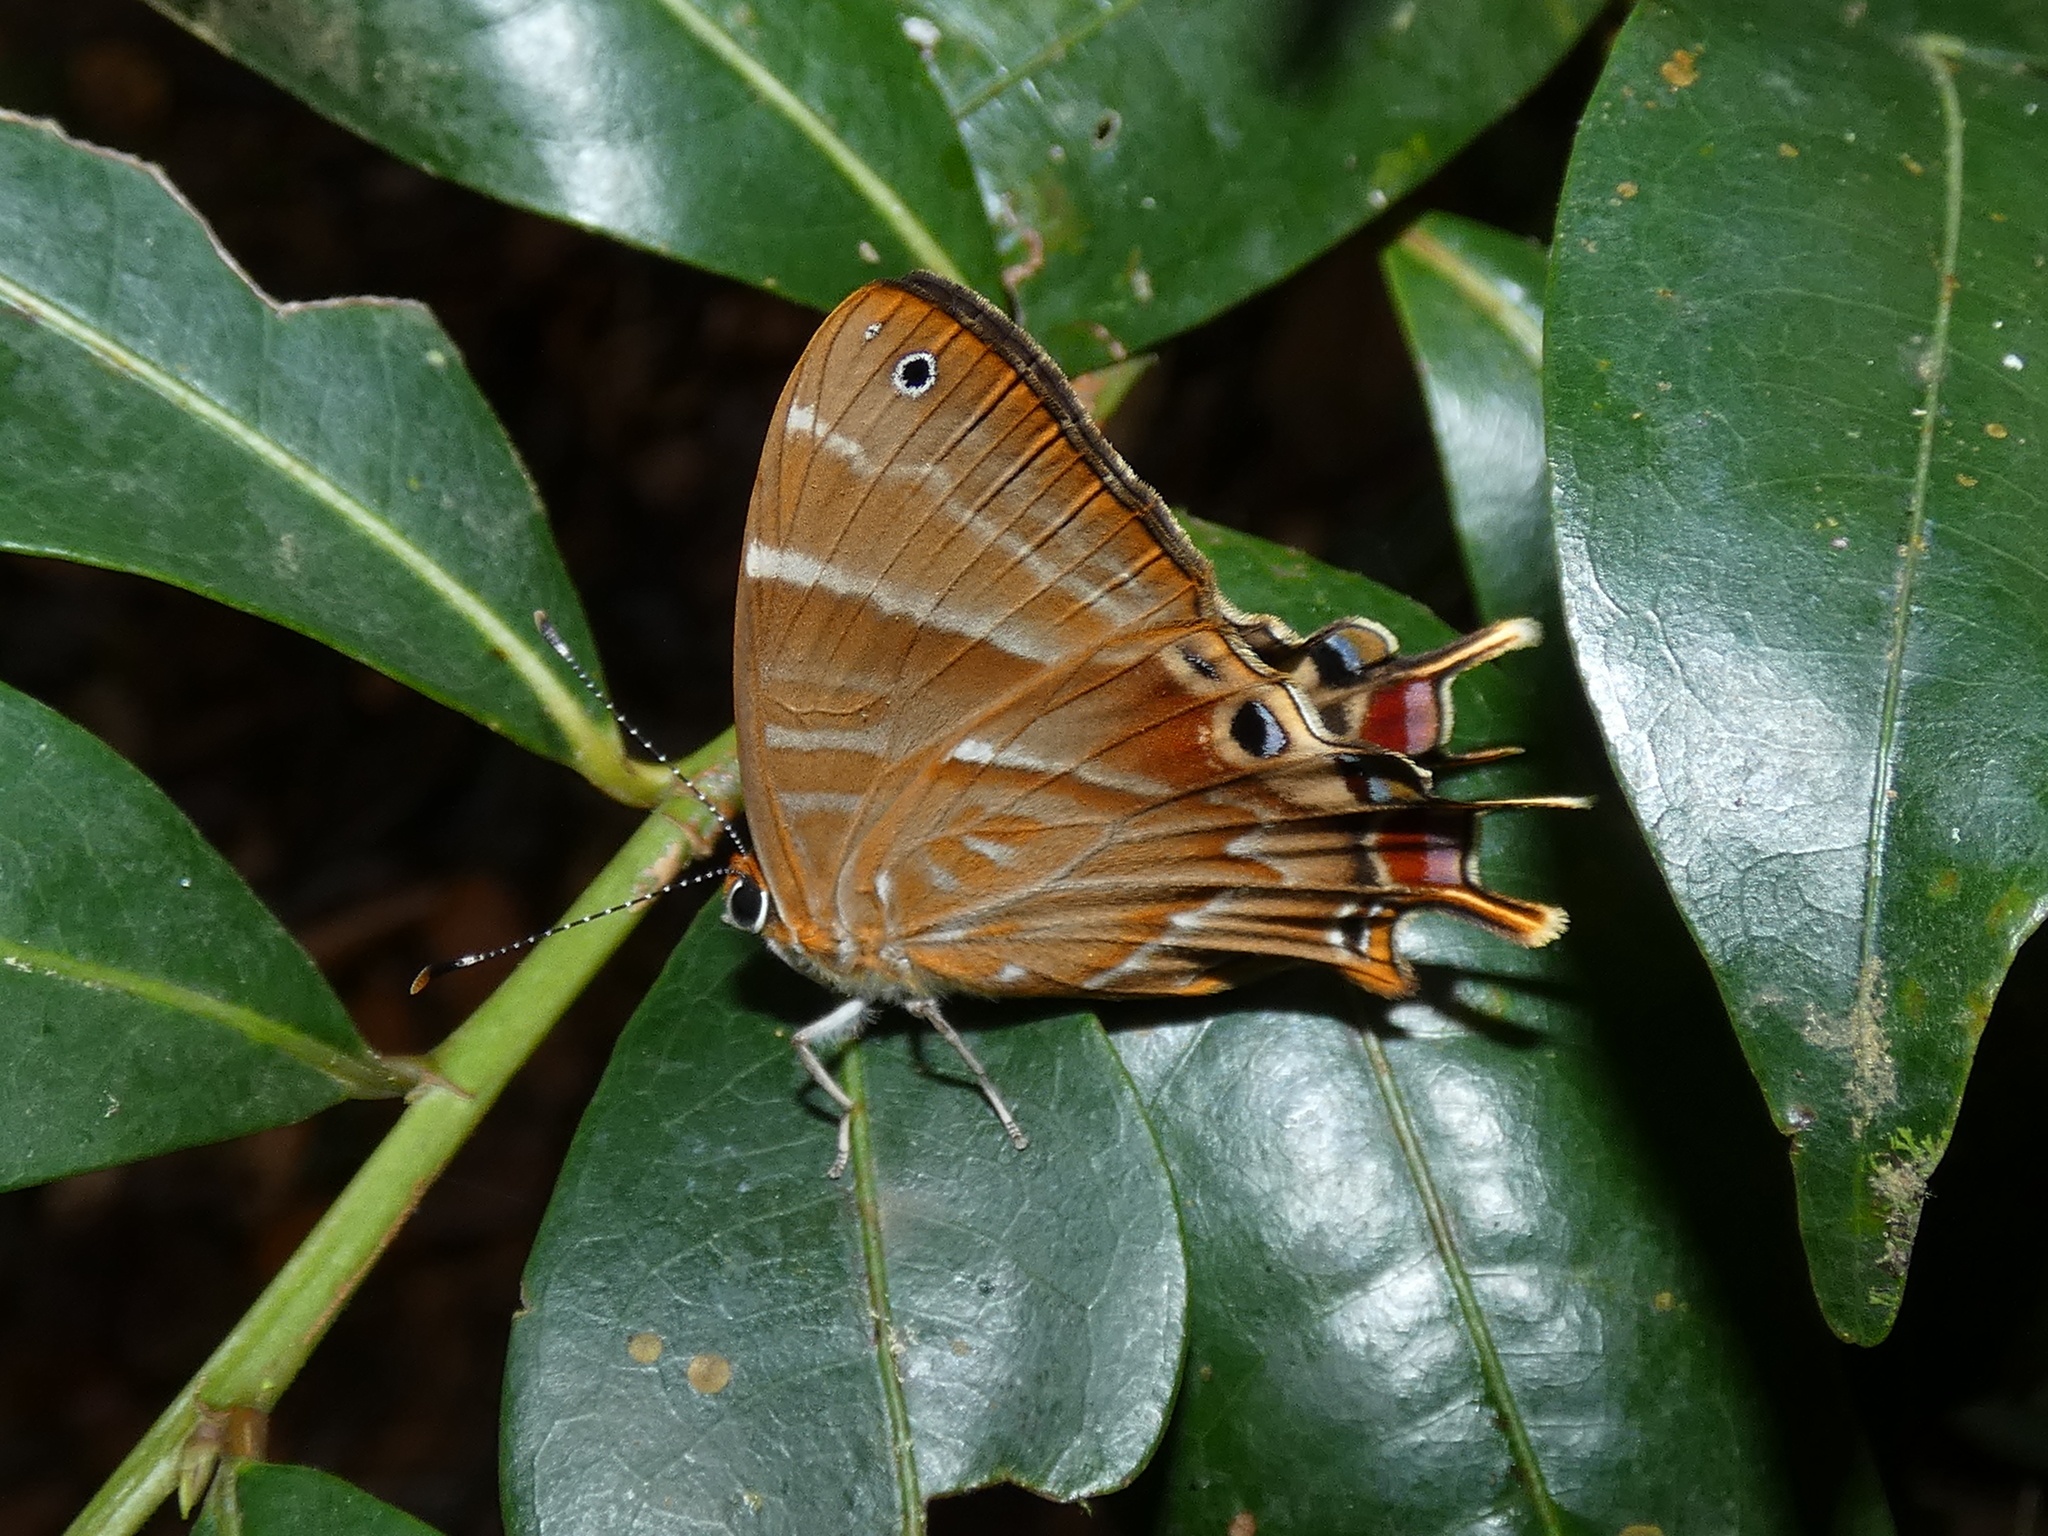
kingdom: Animalia
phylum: Arthropoda
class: Insecta
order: Lepidoptera
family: Riodinidae
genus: Saribia
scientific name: Saribia tepahi
